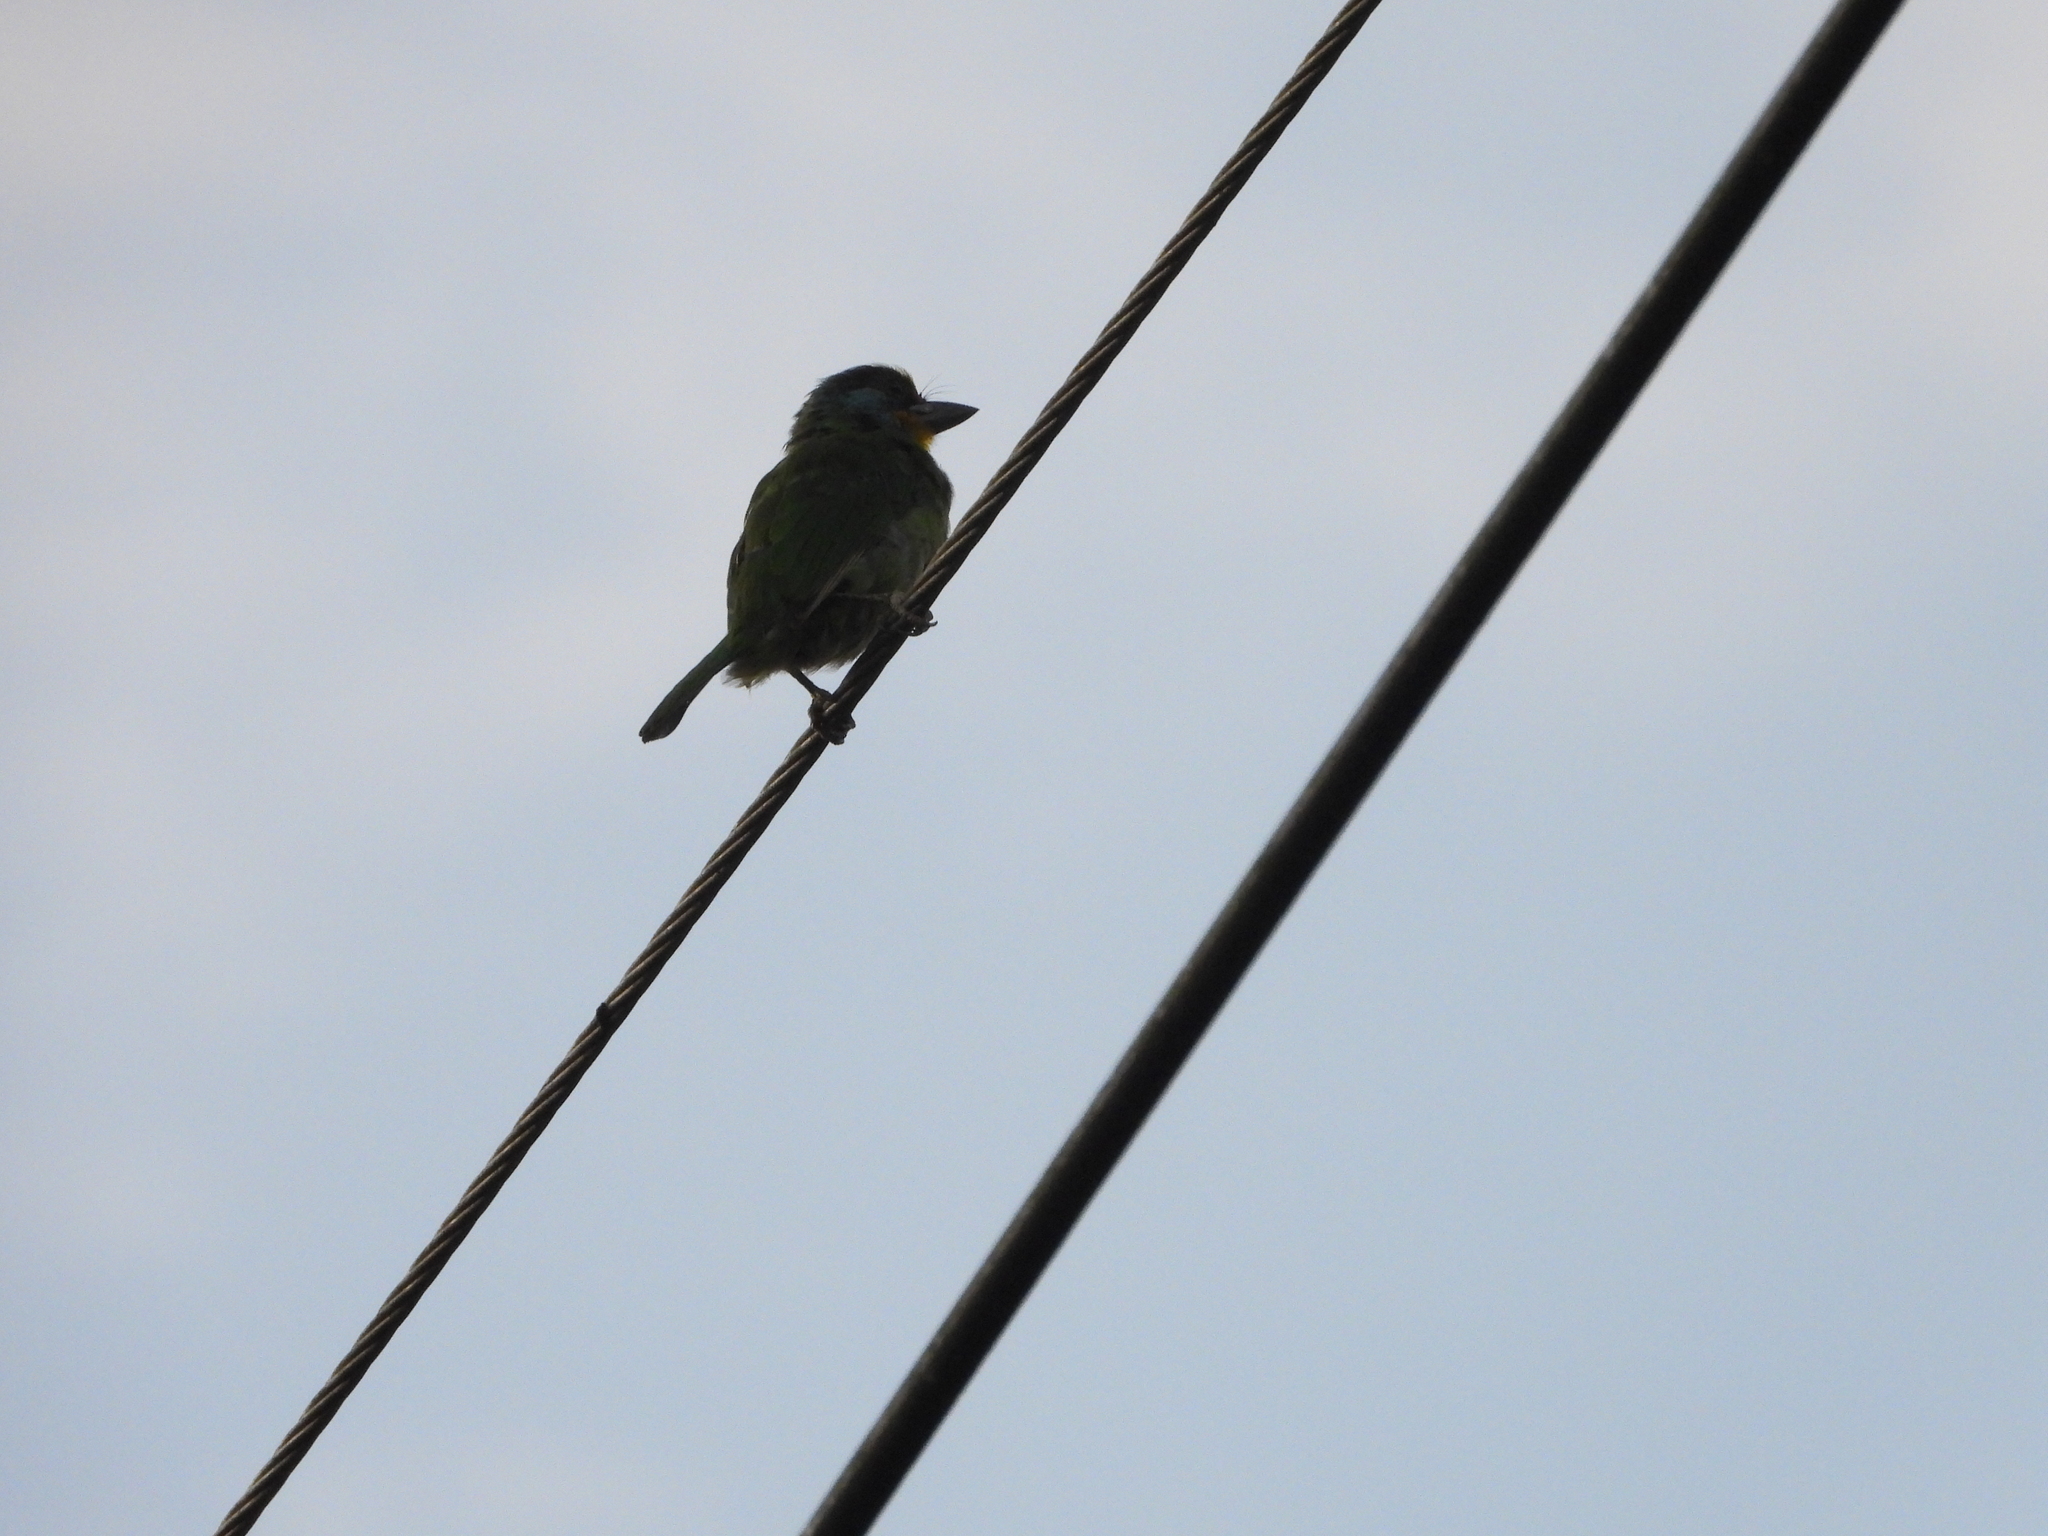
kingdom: Animalia
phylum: Chordata
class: Aves
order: Piciformes
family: Megalaimidae
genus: Psilopogon
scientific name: Psilopogon nuchalis
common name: Taiwan barbet
